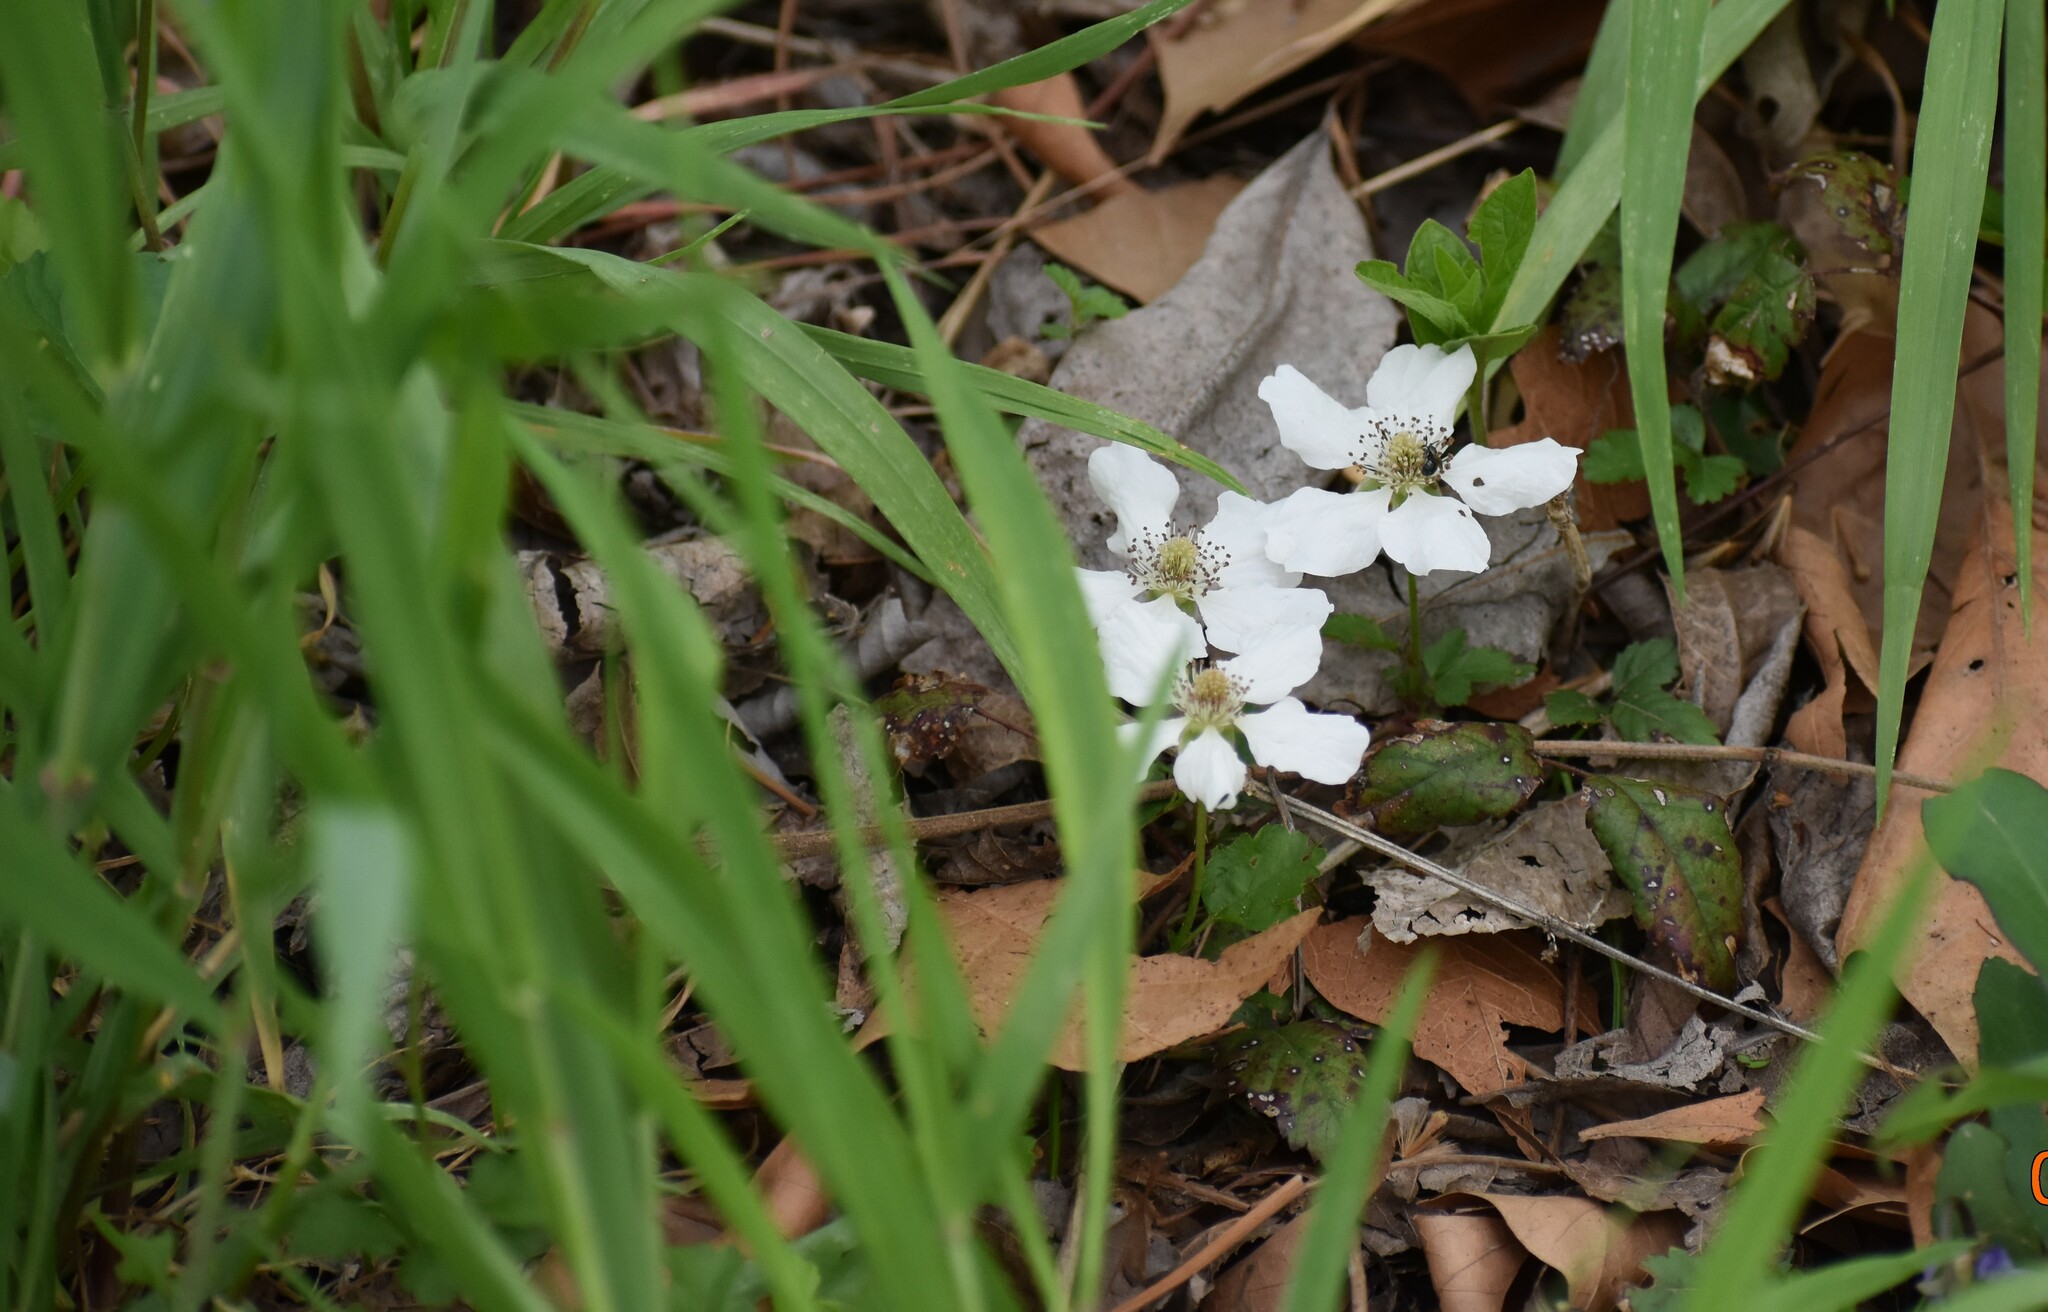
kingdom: Plantae
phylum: Tracheophyta
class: Magnoliopsida
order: Rosales
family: Rosaceae
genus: Rubus
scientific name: Rubus trivialis
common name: Southern dewberry
